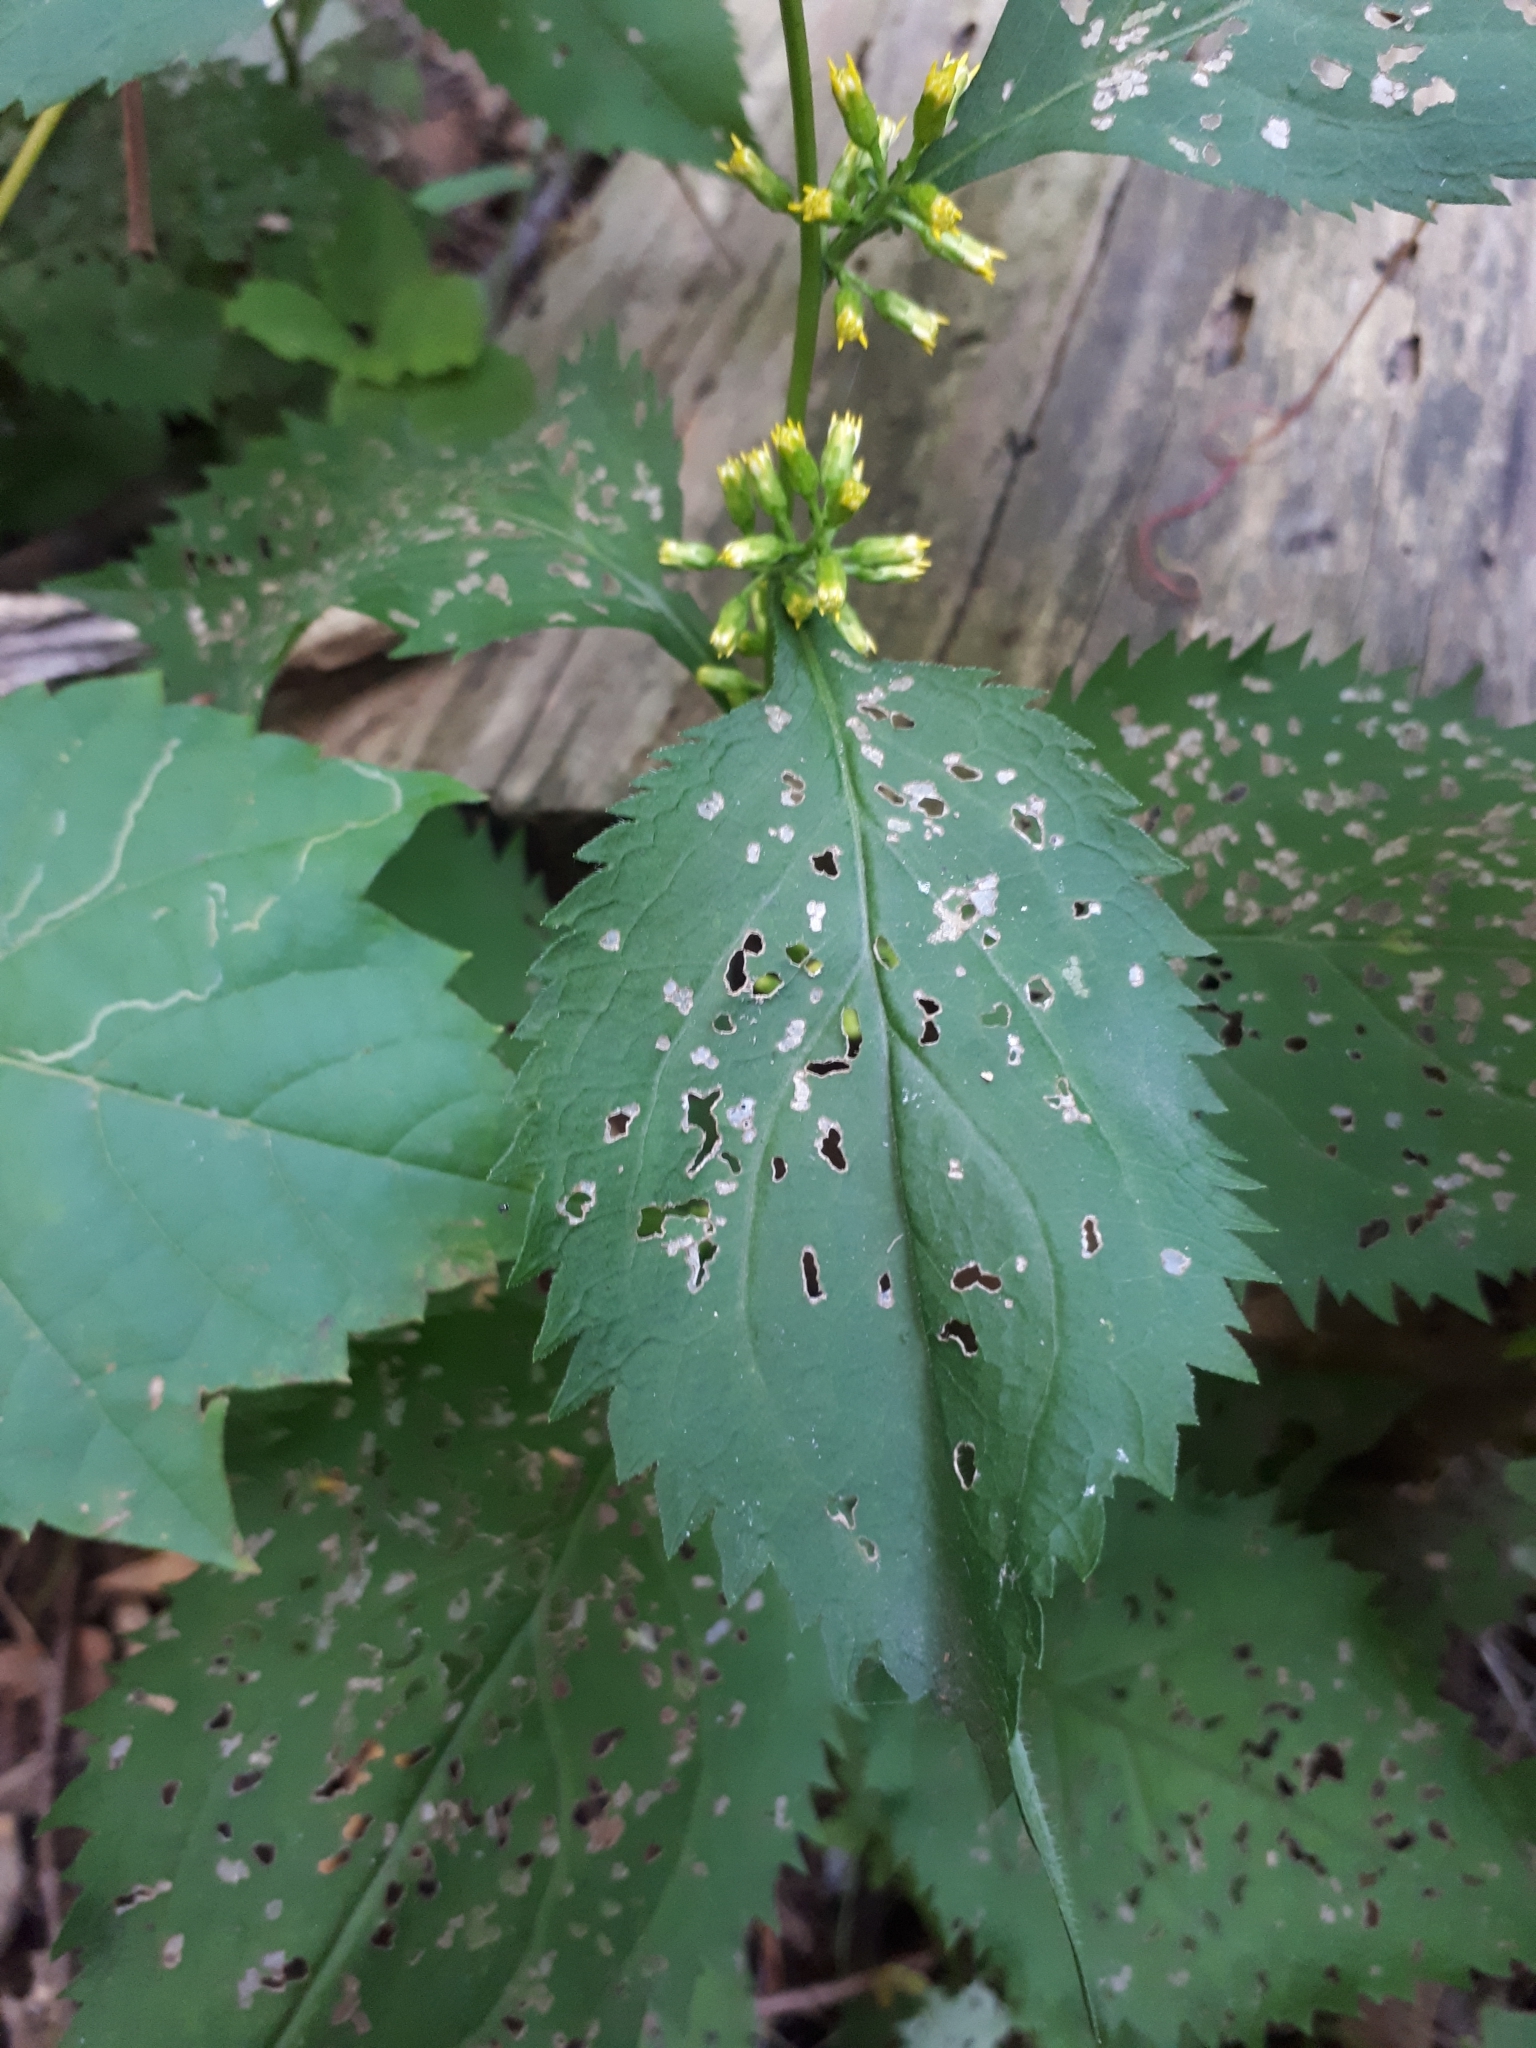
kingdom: Plantae
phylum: Tracheophyta
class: Magnoliopsida
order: Asterales
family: Asteraceae
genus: Solidago
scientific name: Solidago flexicaulis
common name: Zig-zag goldenrod
